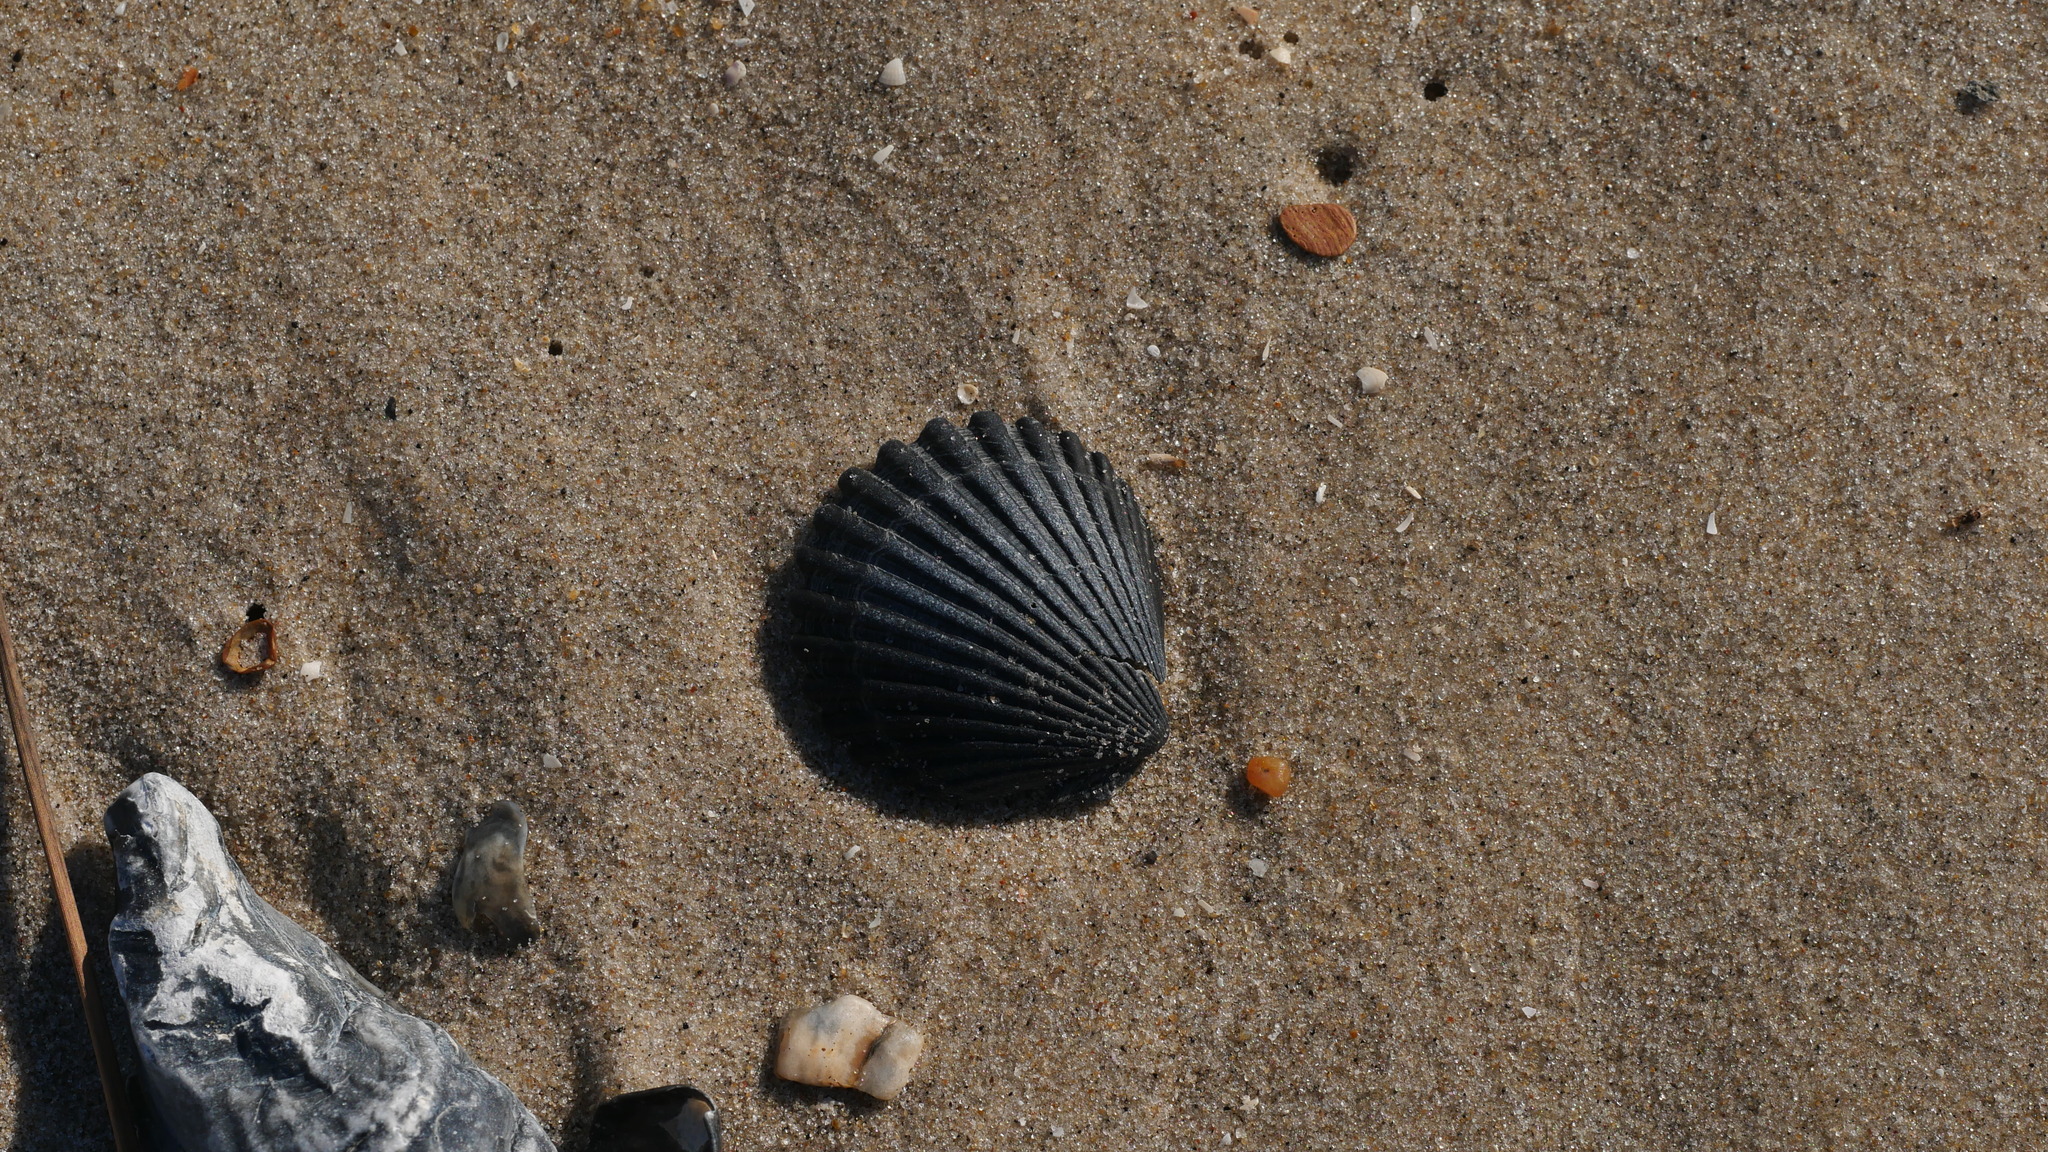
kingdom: Animalia
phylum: Mollusca
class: Bivalvia
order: Pectinida
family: Pectinidae
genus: Argopecten
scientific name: Argopecten irradians
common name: Atlantic bay scallop
